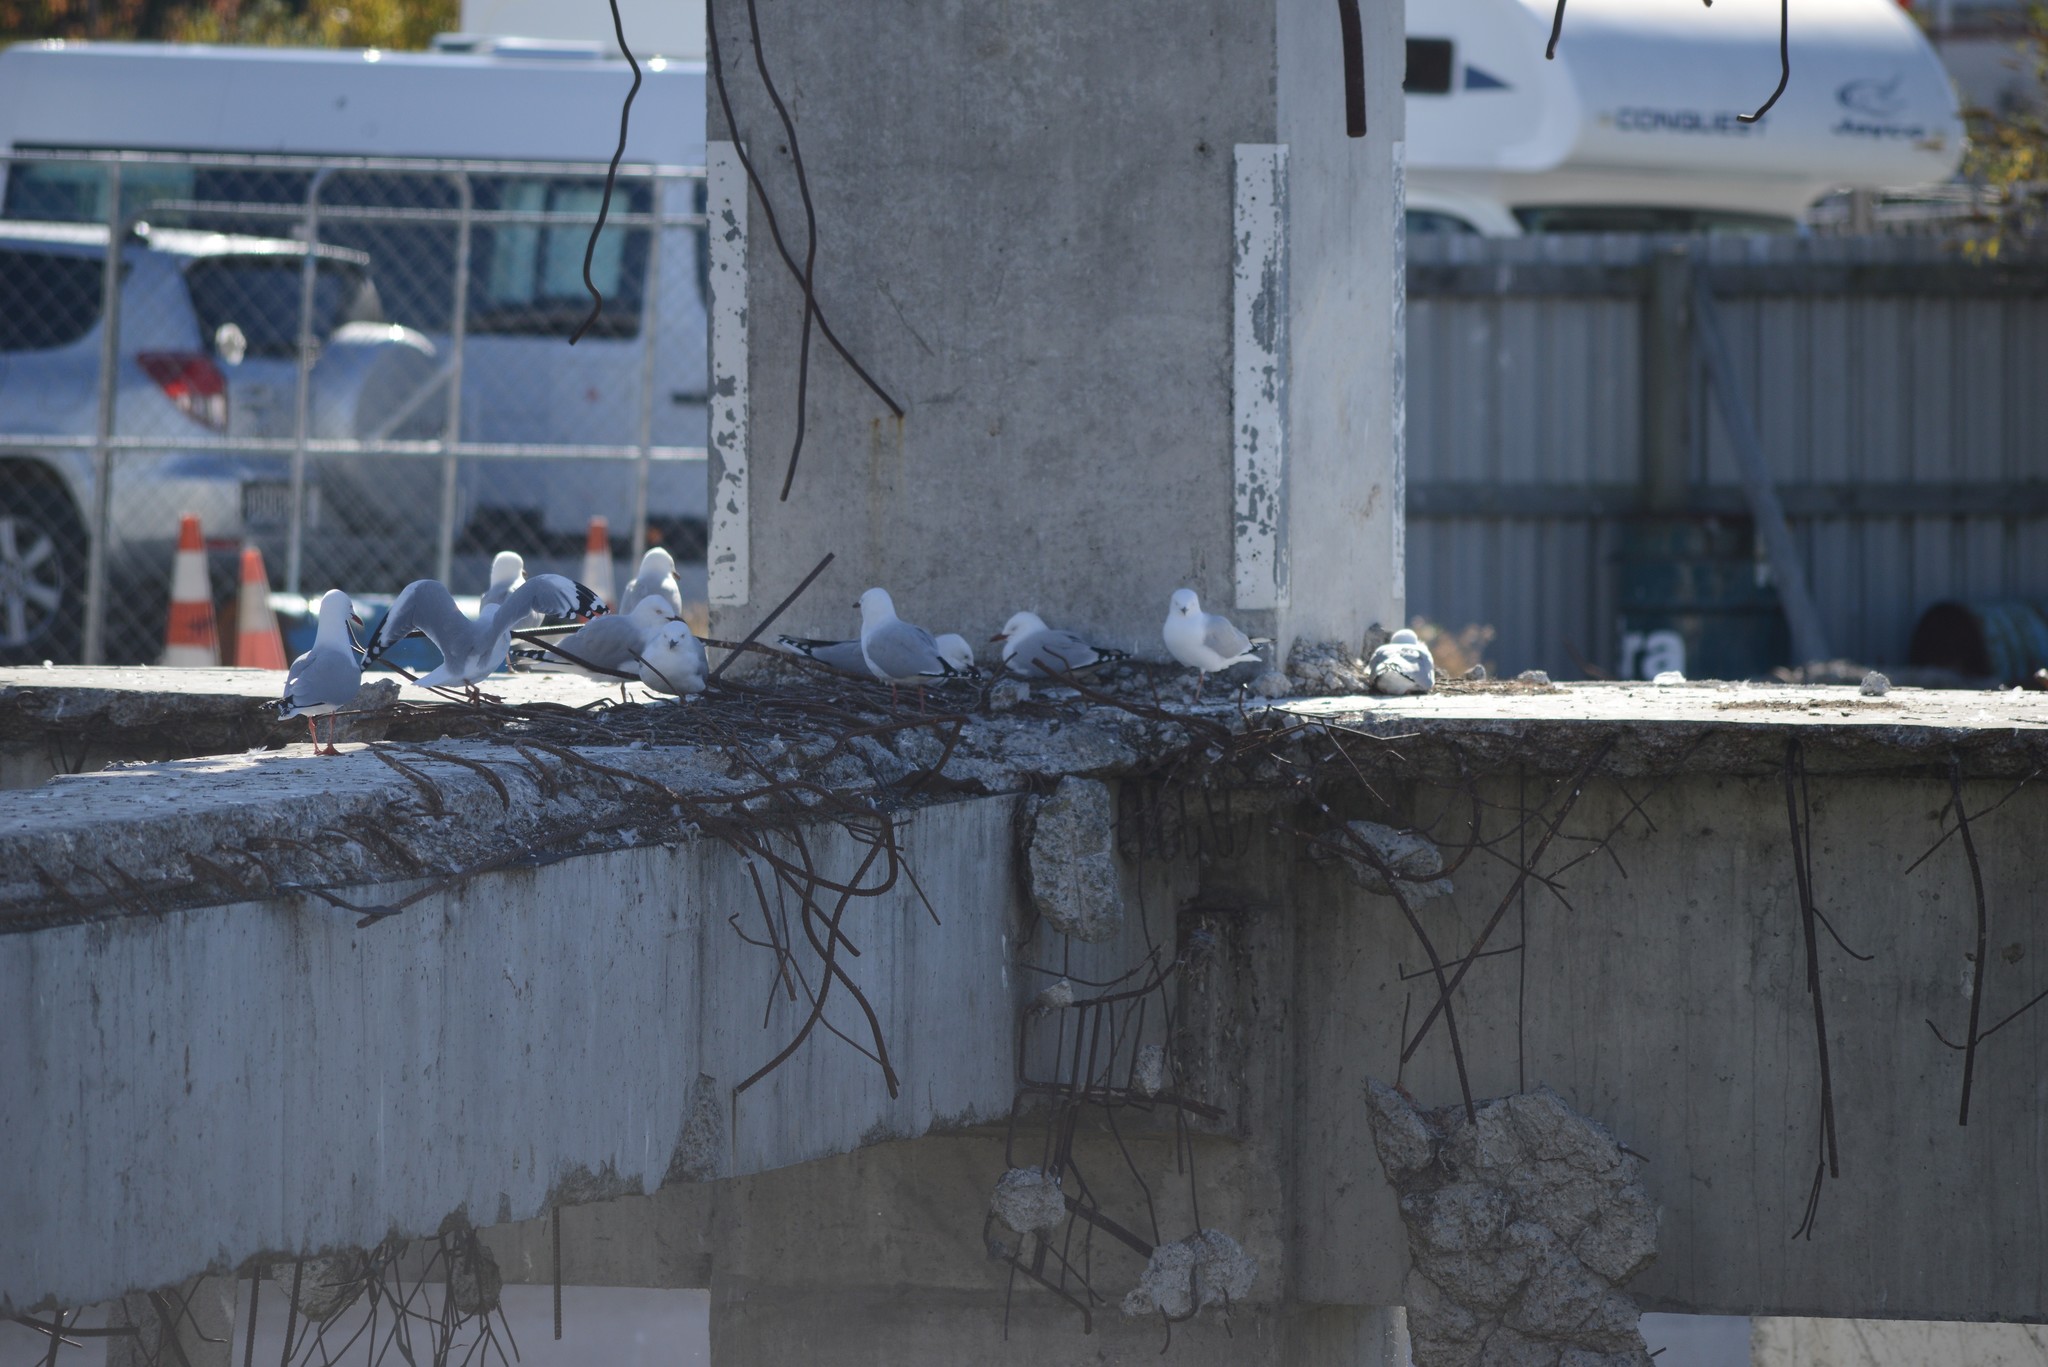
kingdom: Animalia
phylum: Chordata
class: Aves
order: Charadriiformes
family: Laridae
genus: Chroicocephalus
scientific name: Chroicocephalus novaehollandiae
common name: Silver gull
